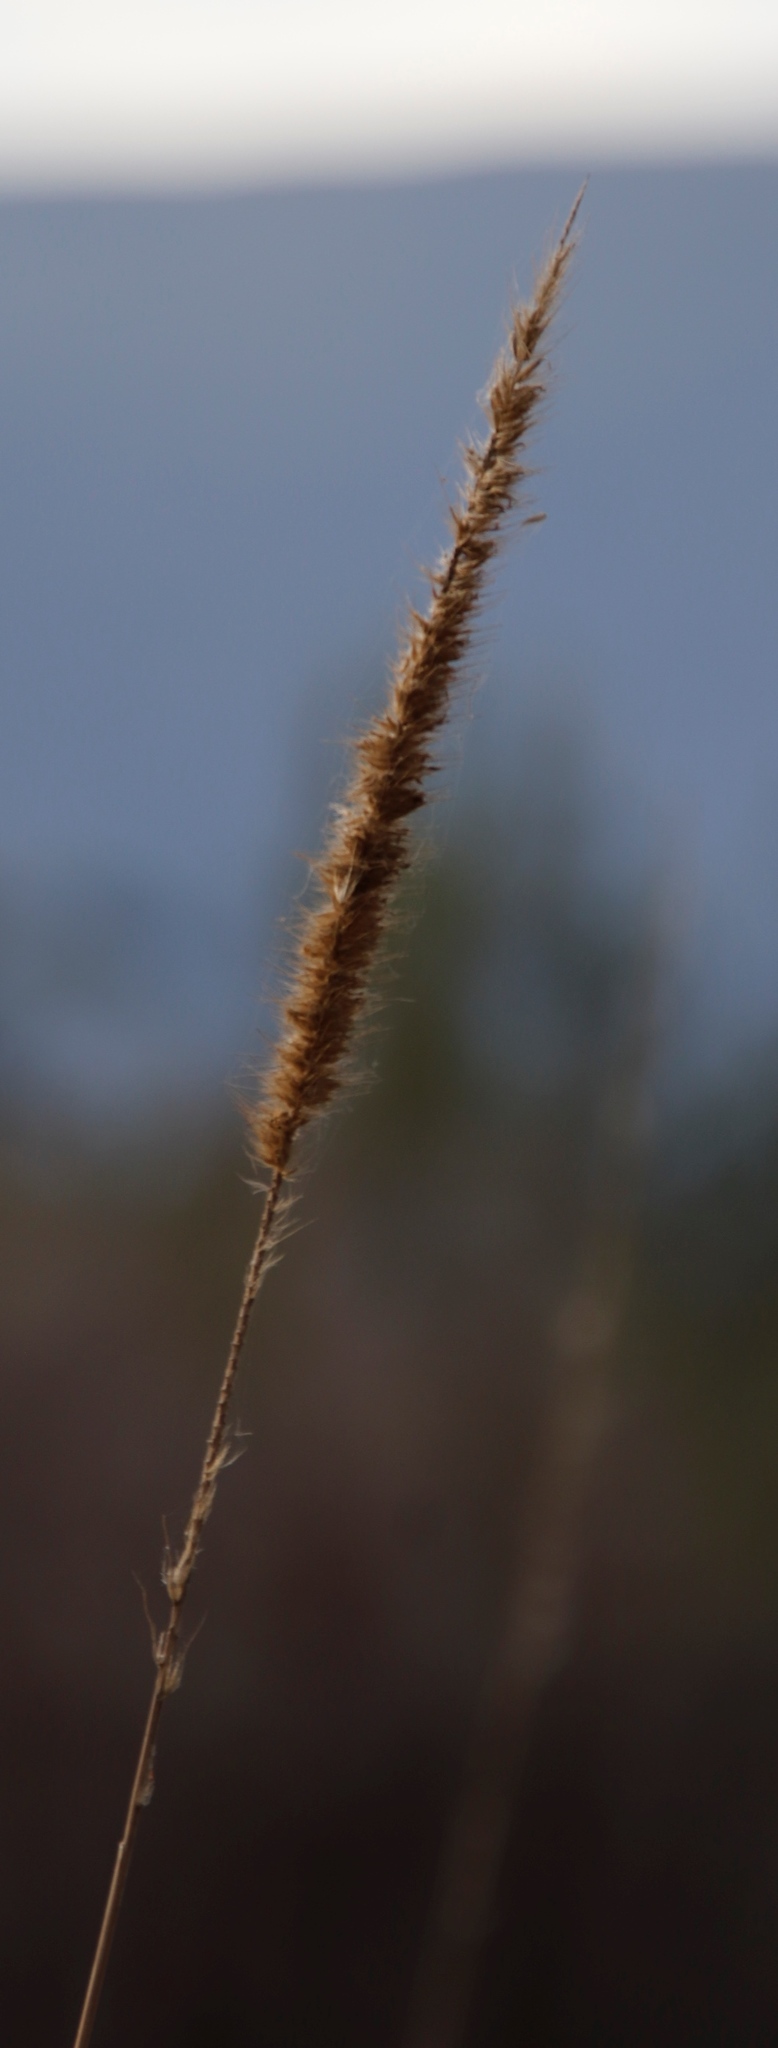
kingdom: Plantae
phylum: Tracheophyta
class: Liliopsida
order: Poales
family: Poaceae
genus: Polypogon
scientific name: Polypogon monspeliensis
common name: Annual rabbitsfoot grass
